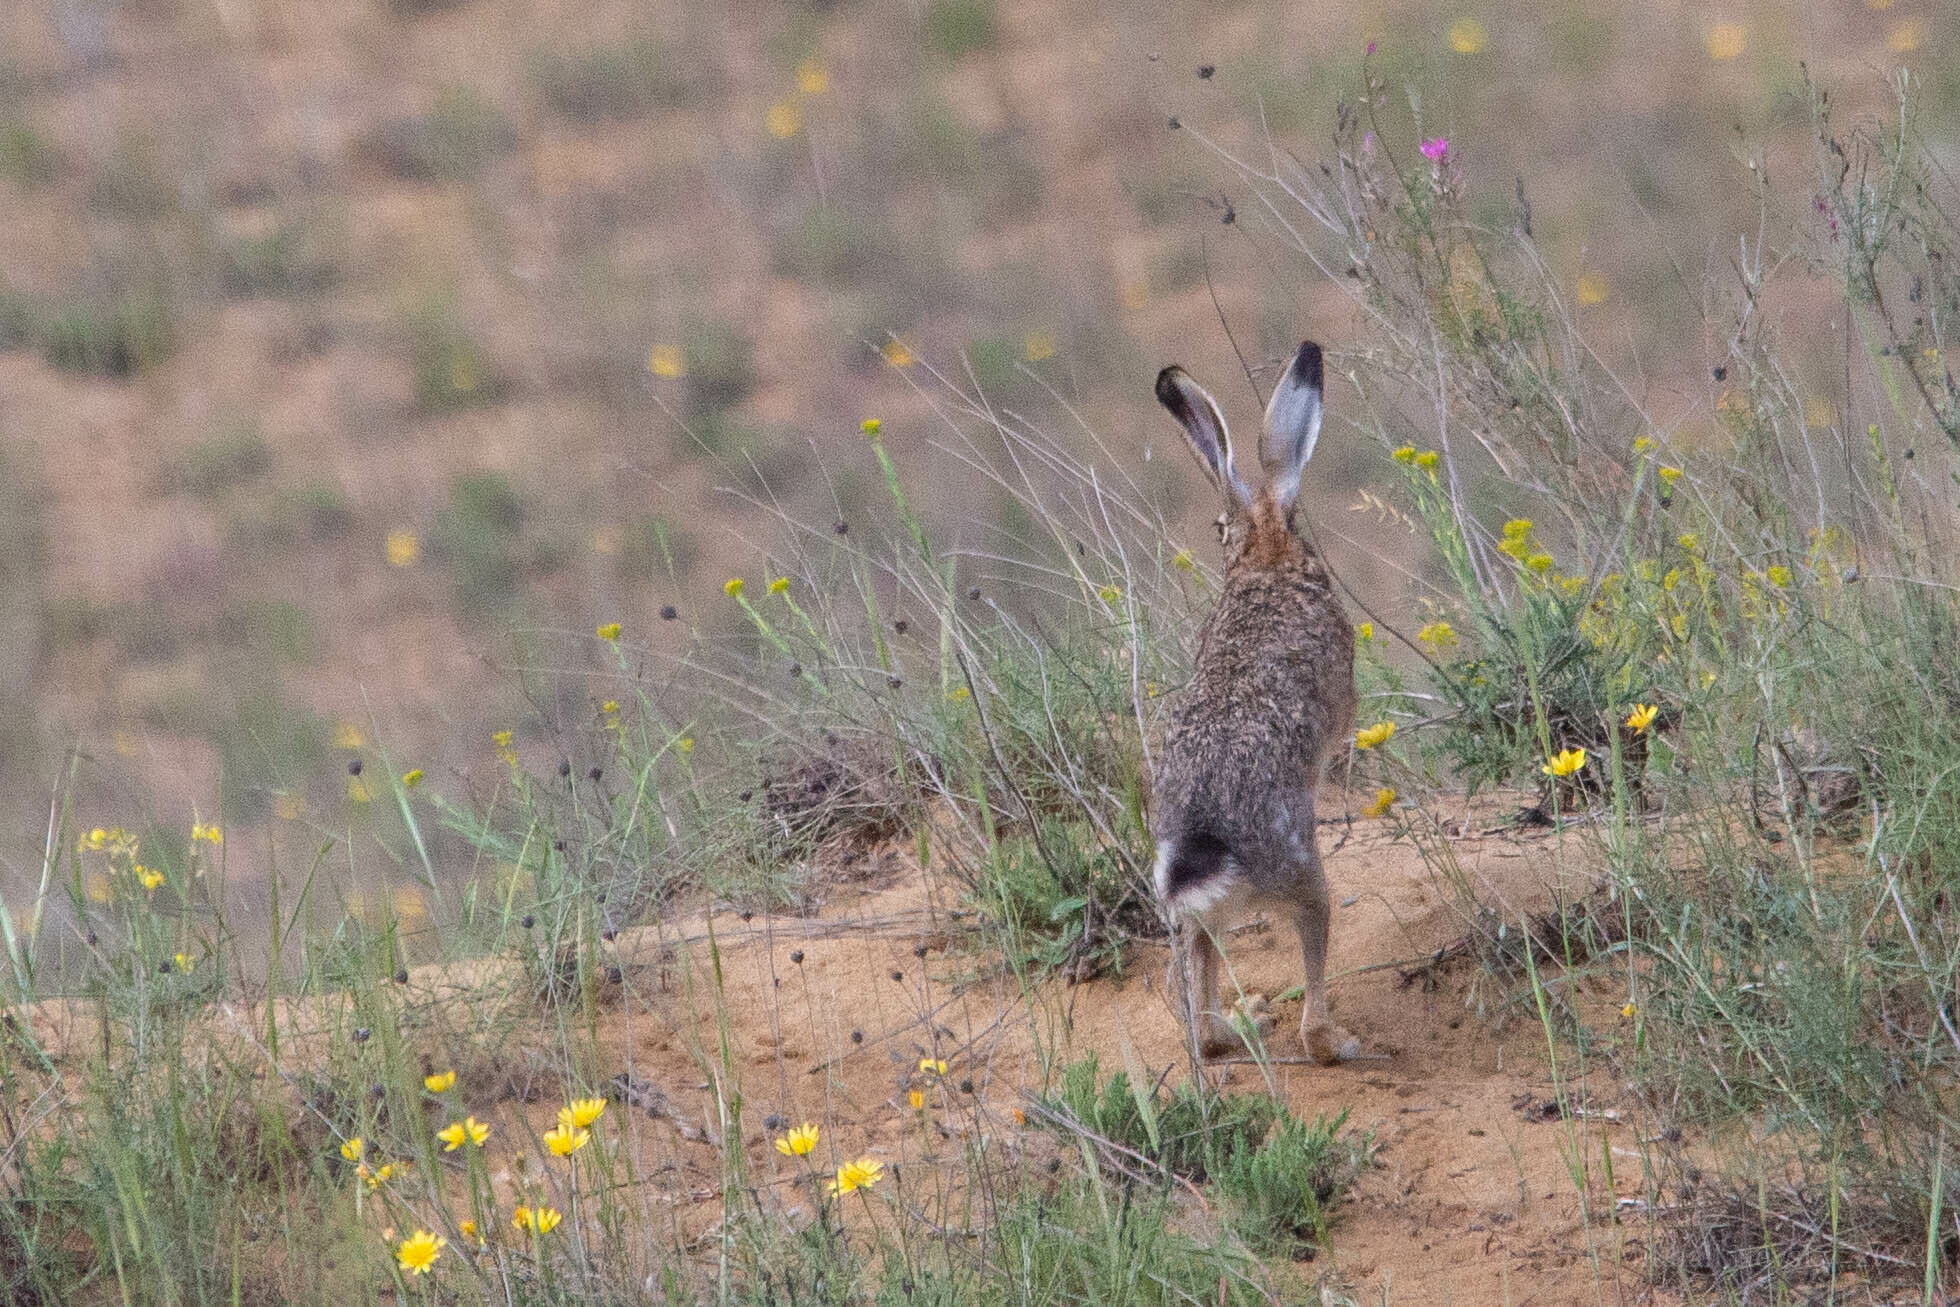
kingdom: Animalia
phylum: Chordata
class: Mammalia
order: Lagomorpha
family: Leporidae
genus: Lepus
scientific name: Lepus europaeus
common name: European hare
